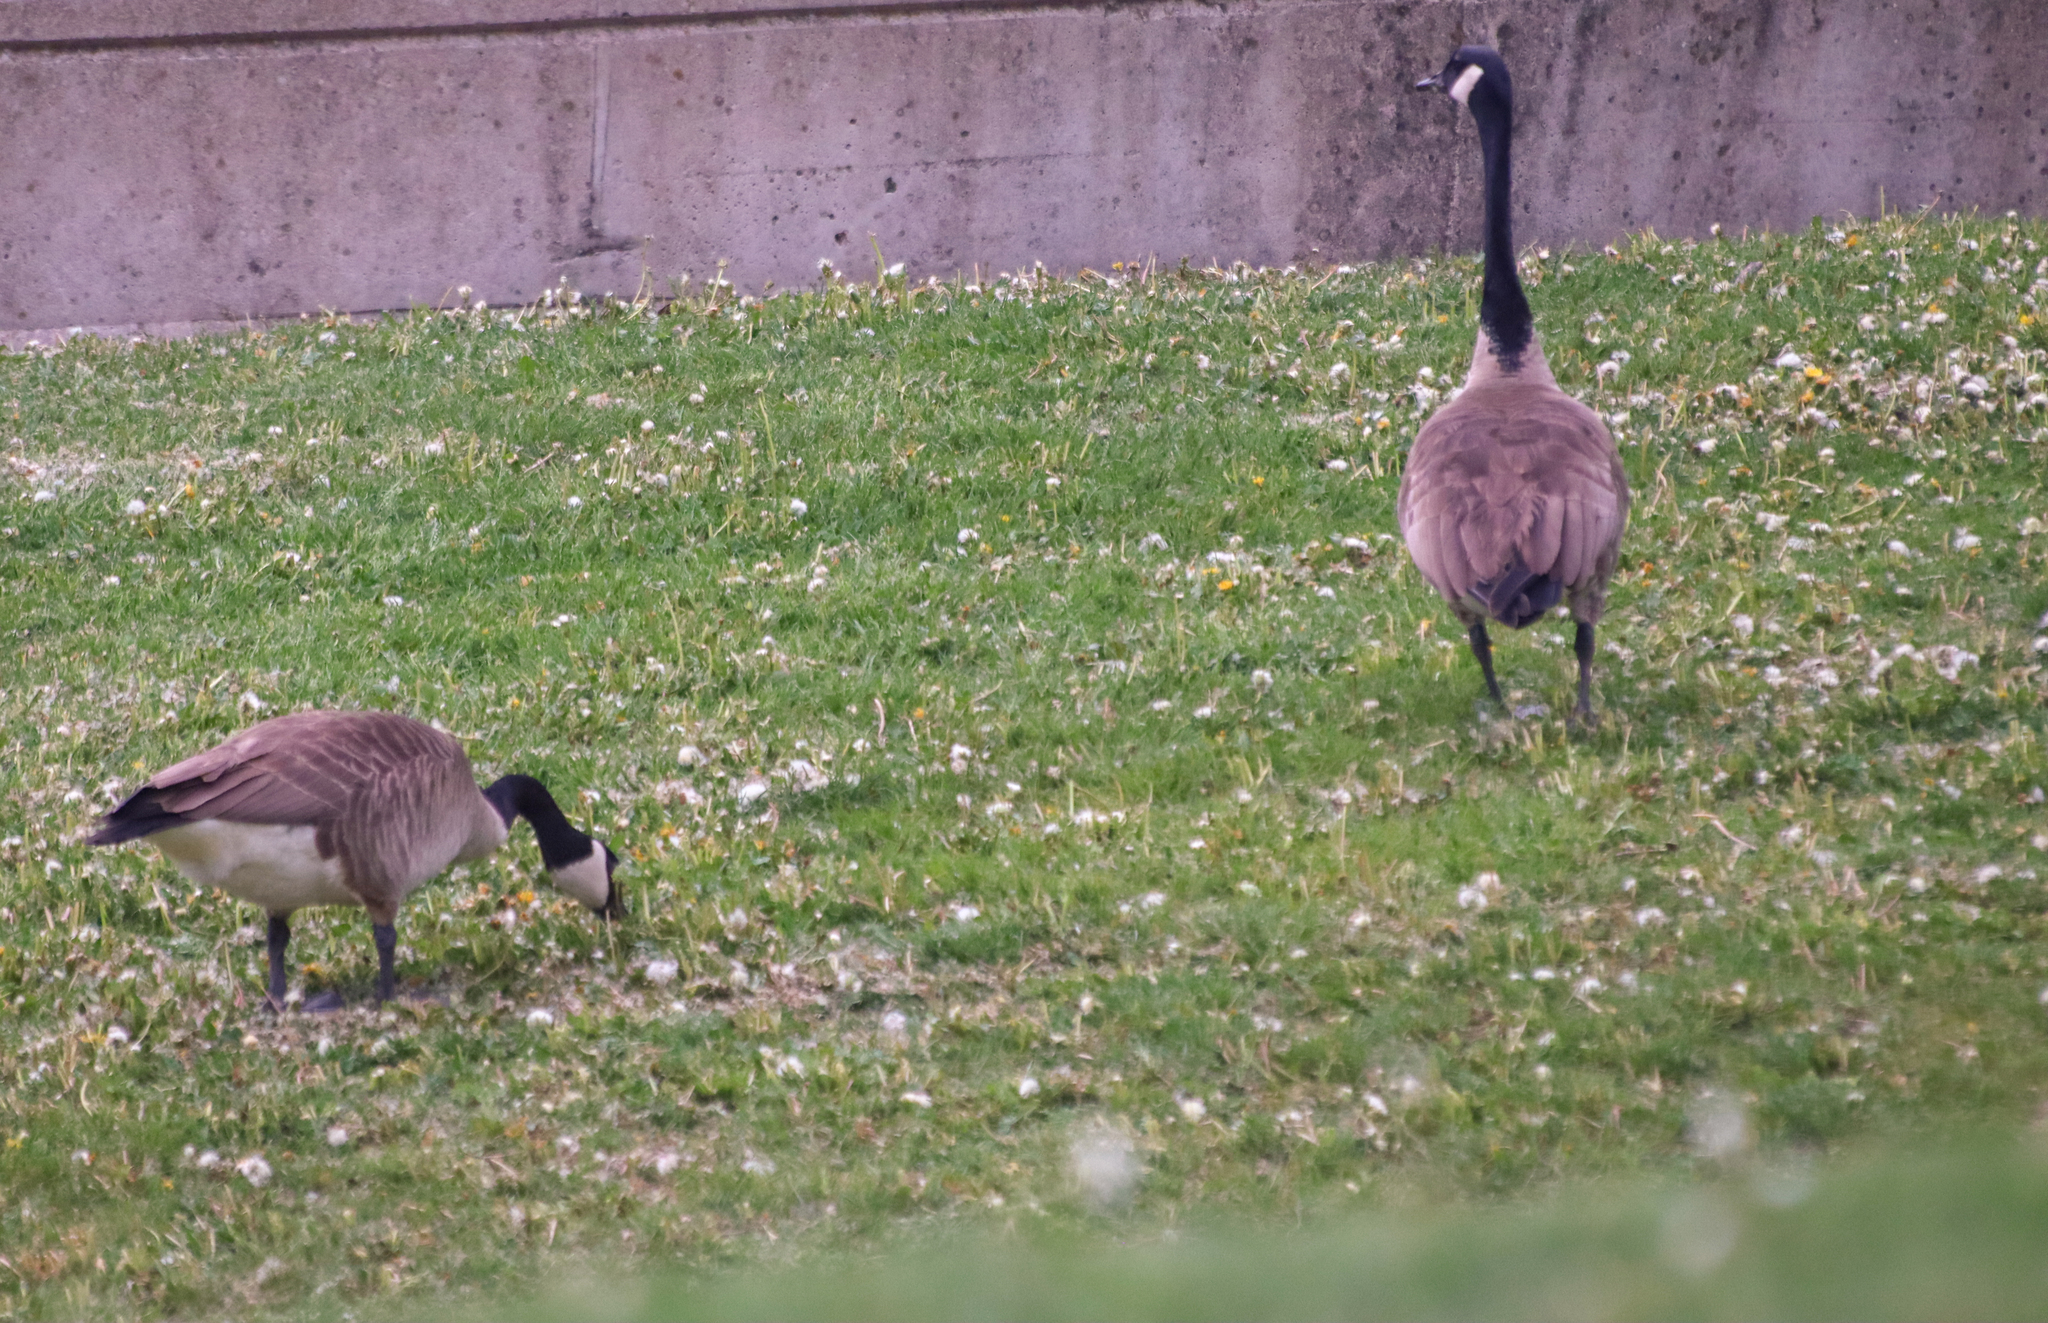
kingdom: Animalia
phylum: Chordata
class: Aves
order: Anseriformes
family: Anatidae
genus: Branta
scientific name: Branta canadensis
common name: Canada goose
